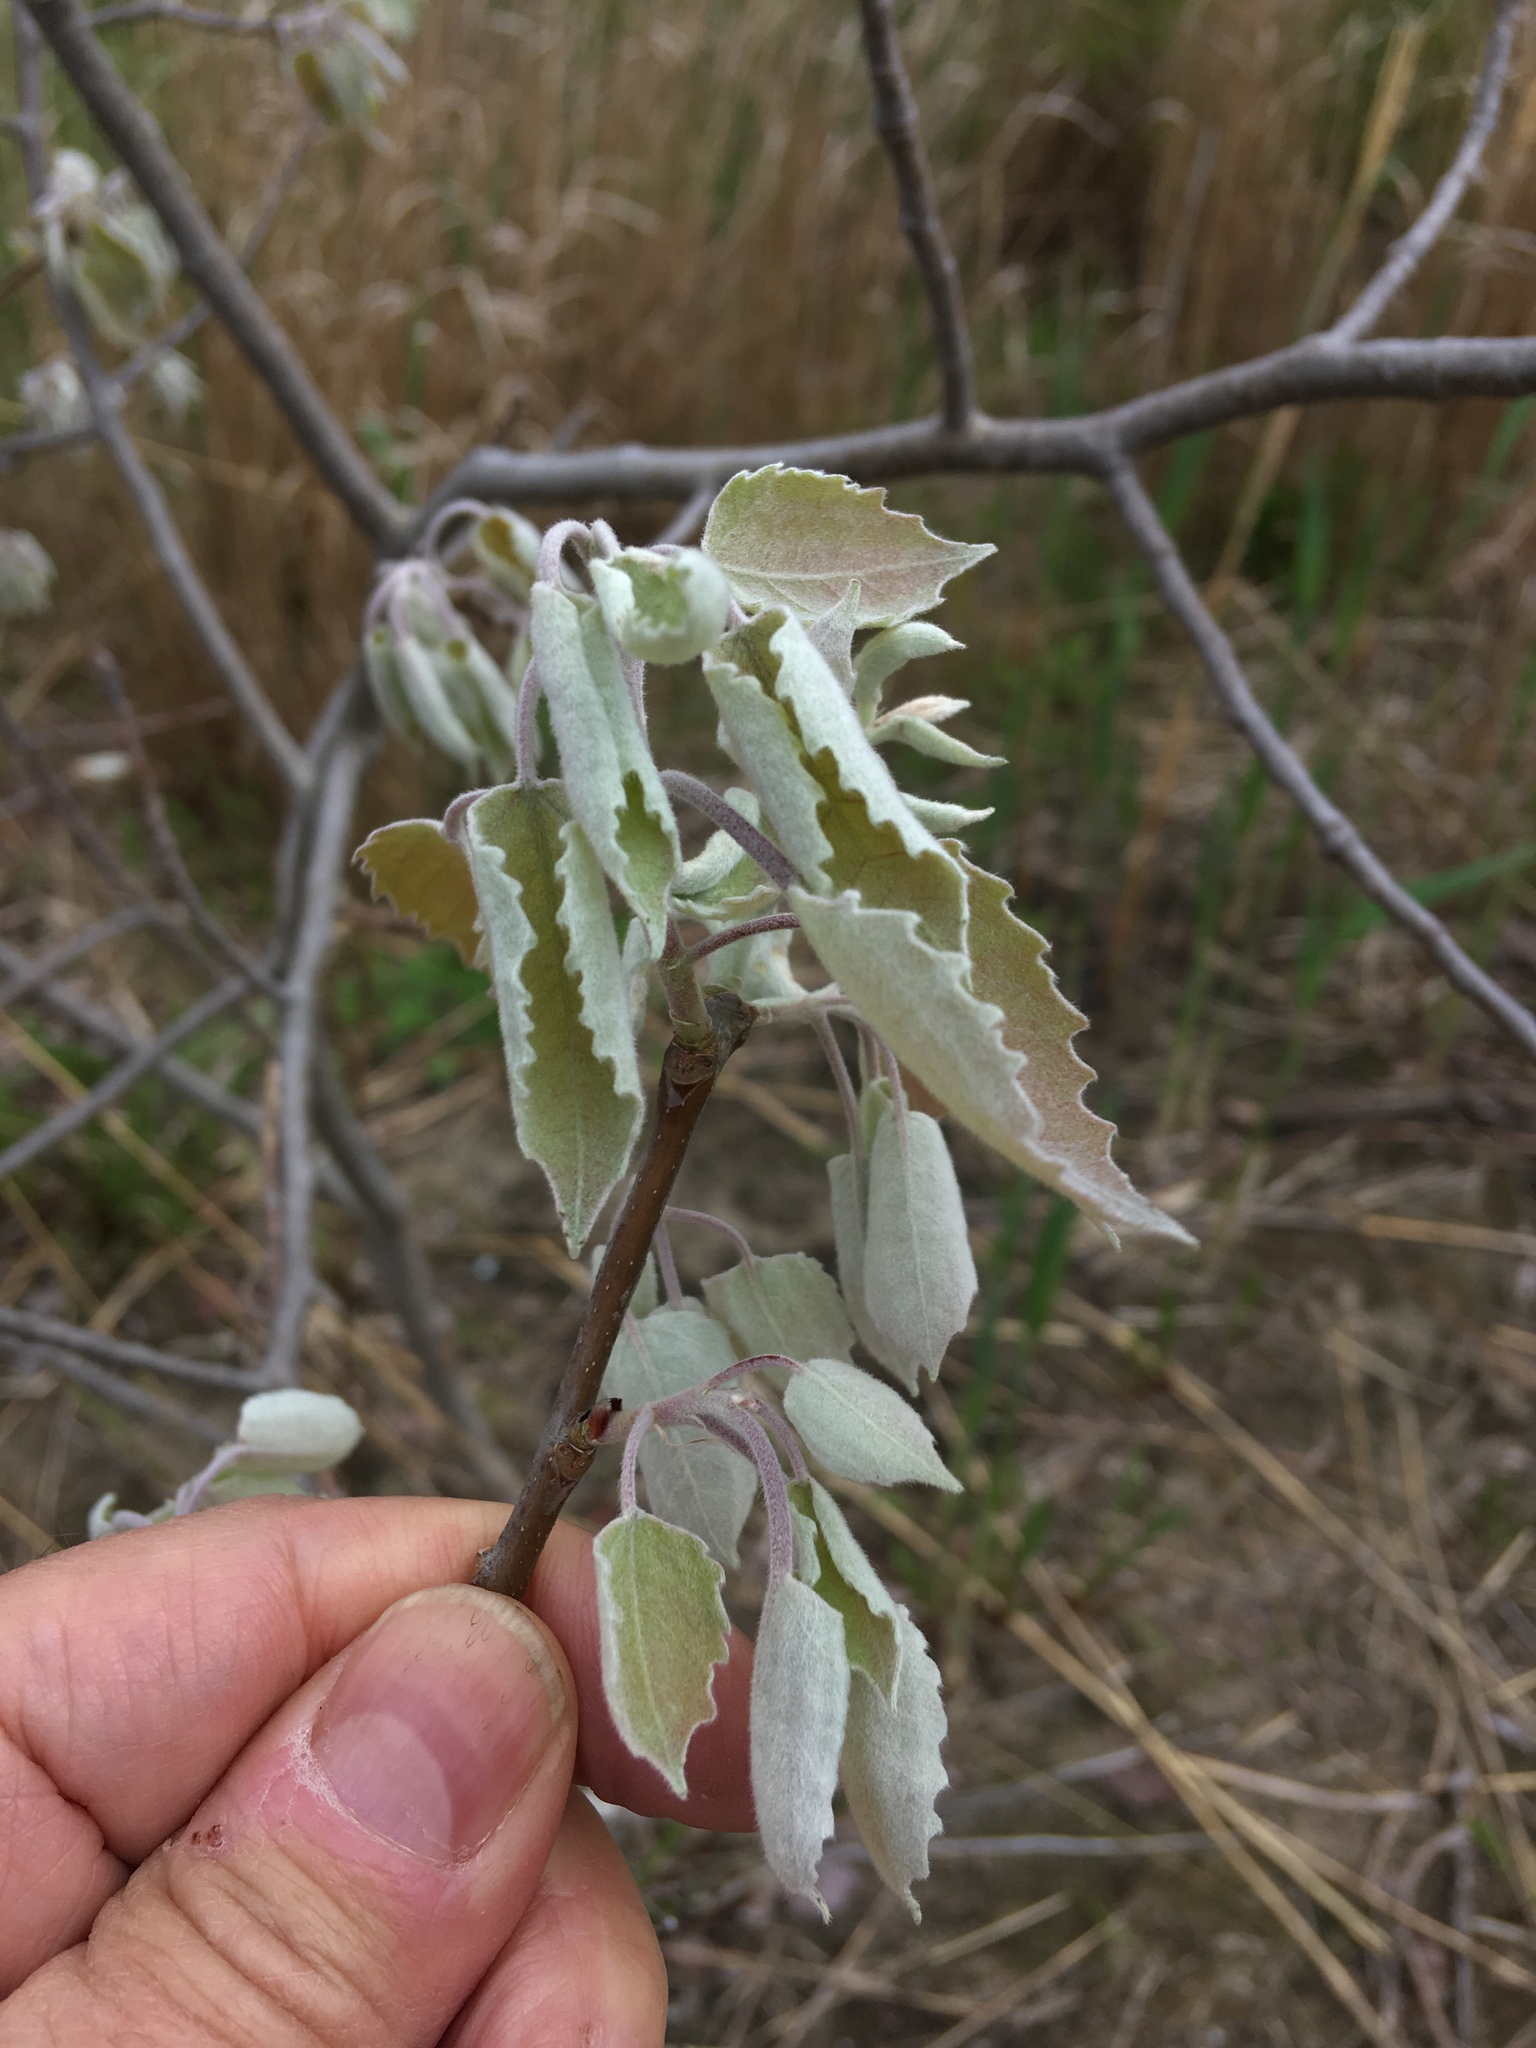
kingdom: Plantae
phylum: Tracheophyta
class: Magnoliopsida
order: Malpighiales
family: Salicaceae
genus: Populus
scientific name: Populus grandidentata
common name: Bigtooth aspen
